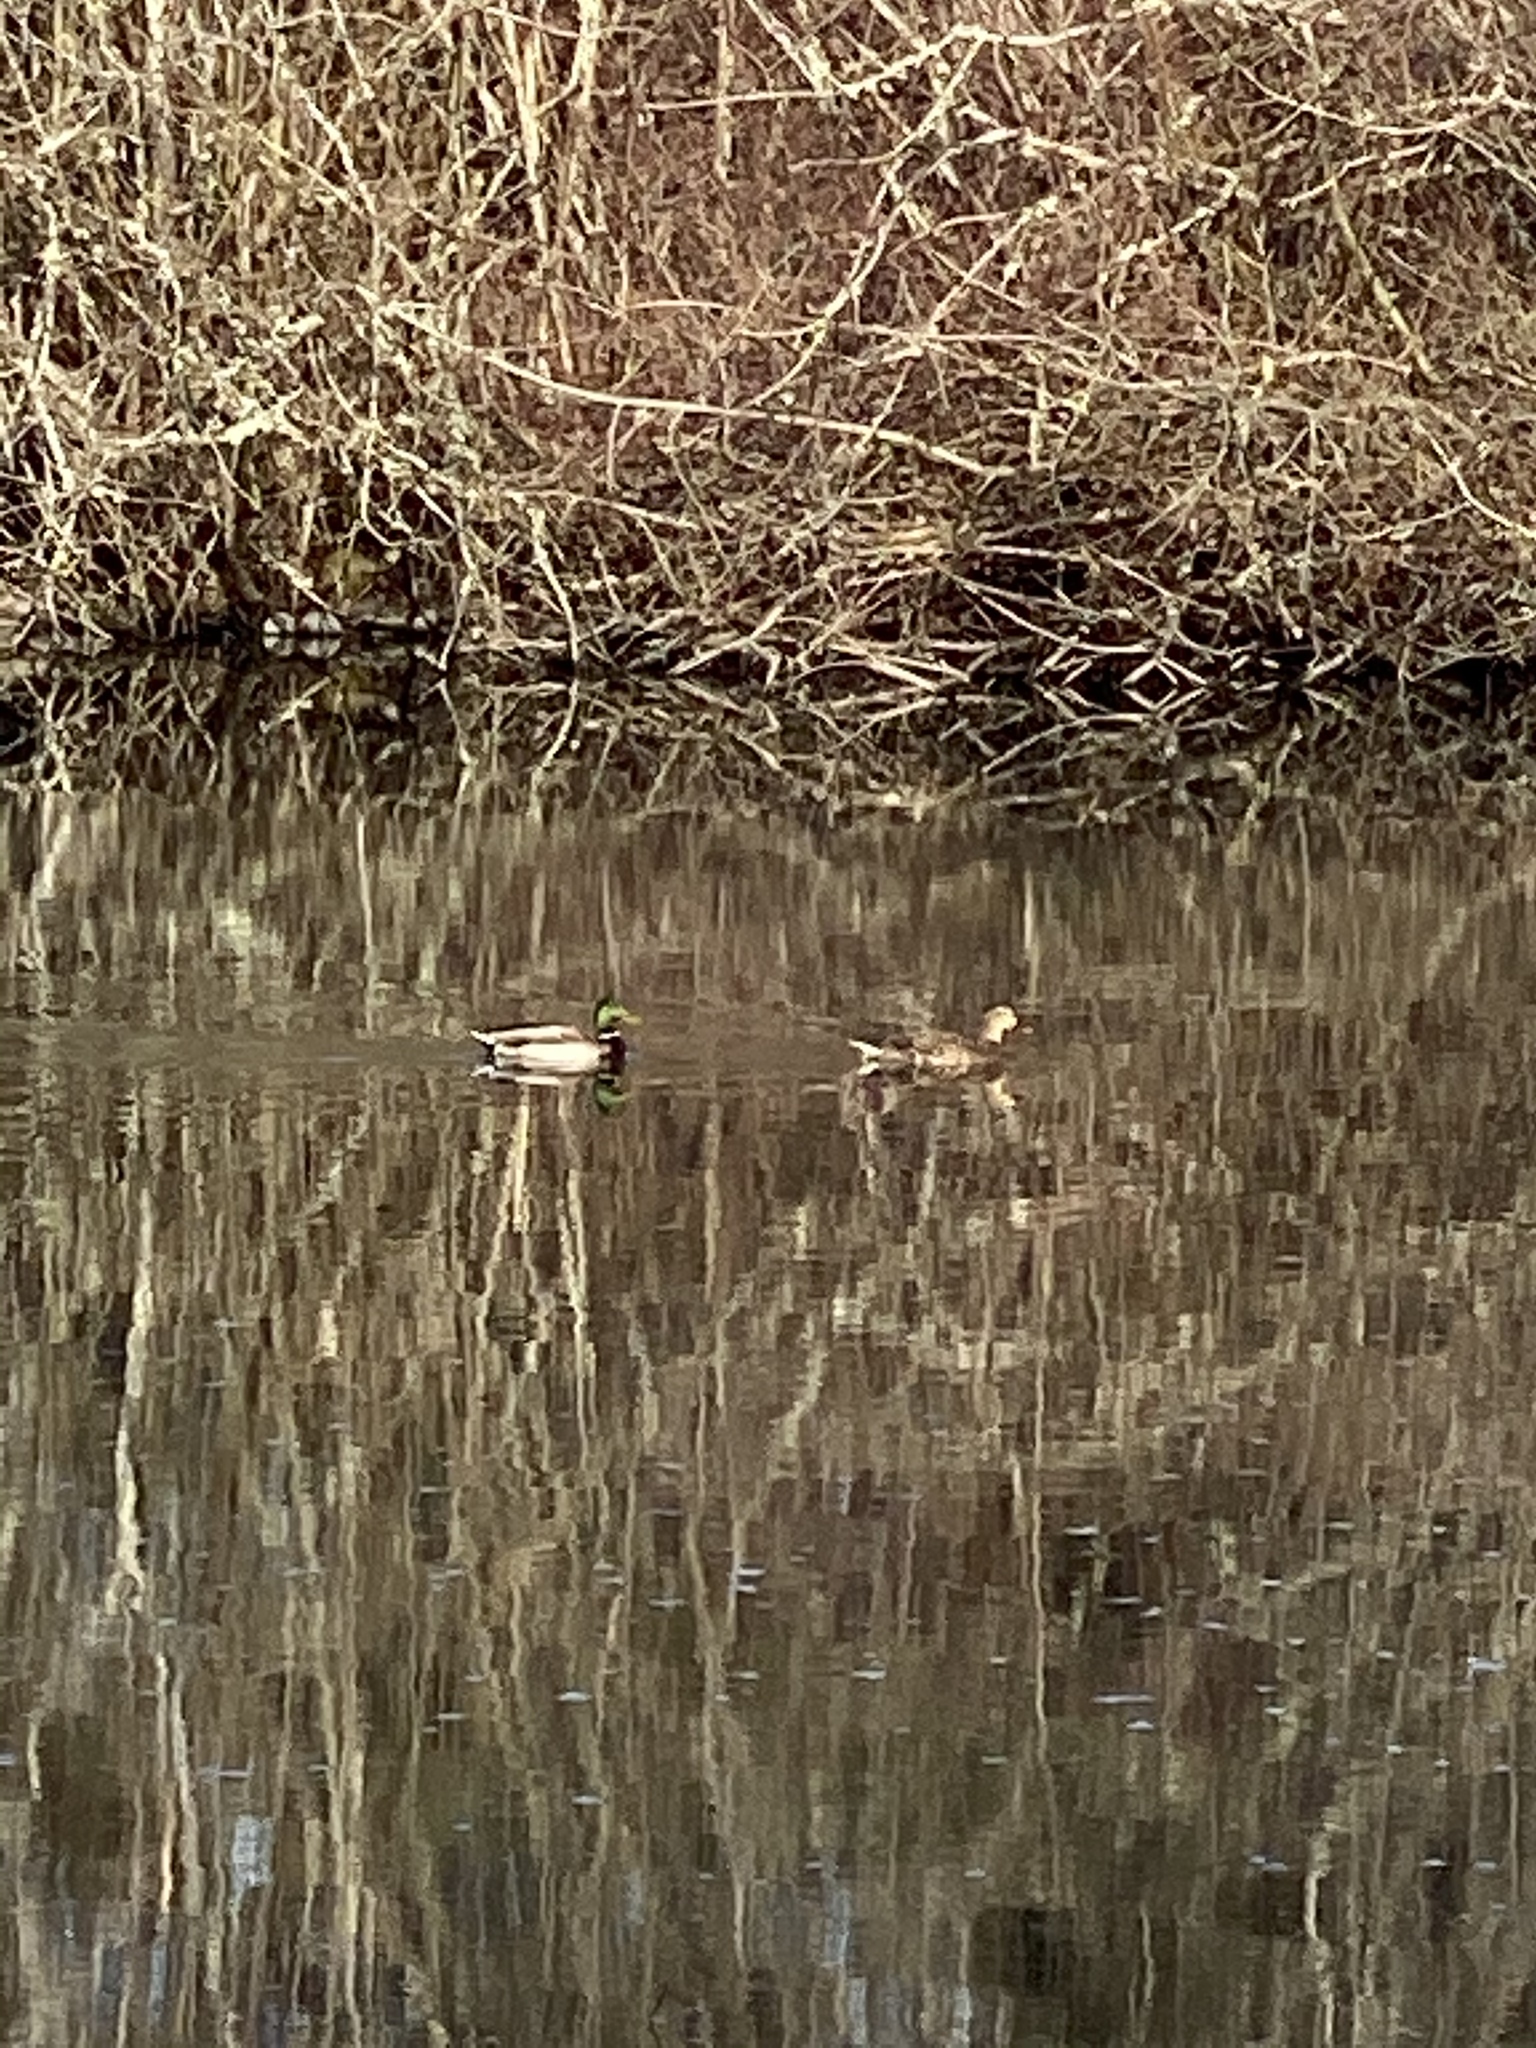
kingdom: Animalia
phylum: Chordata
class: Aves
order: Anseriformes
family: Anatidae
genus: Anas
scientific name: Anas platyrhynchos
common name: Mallard
